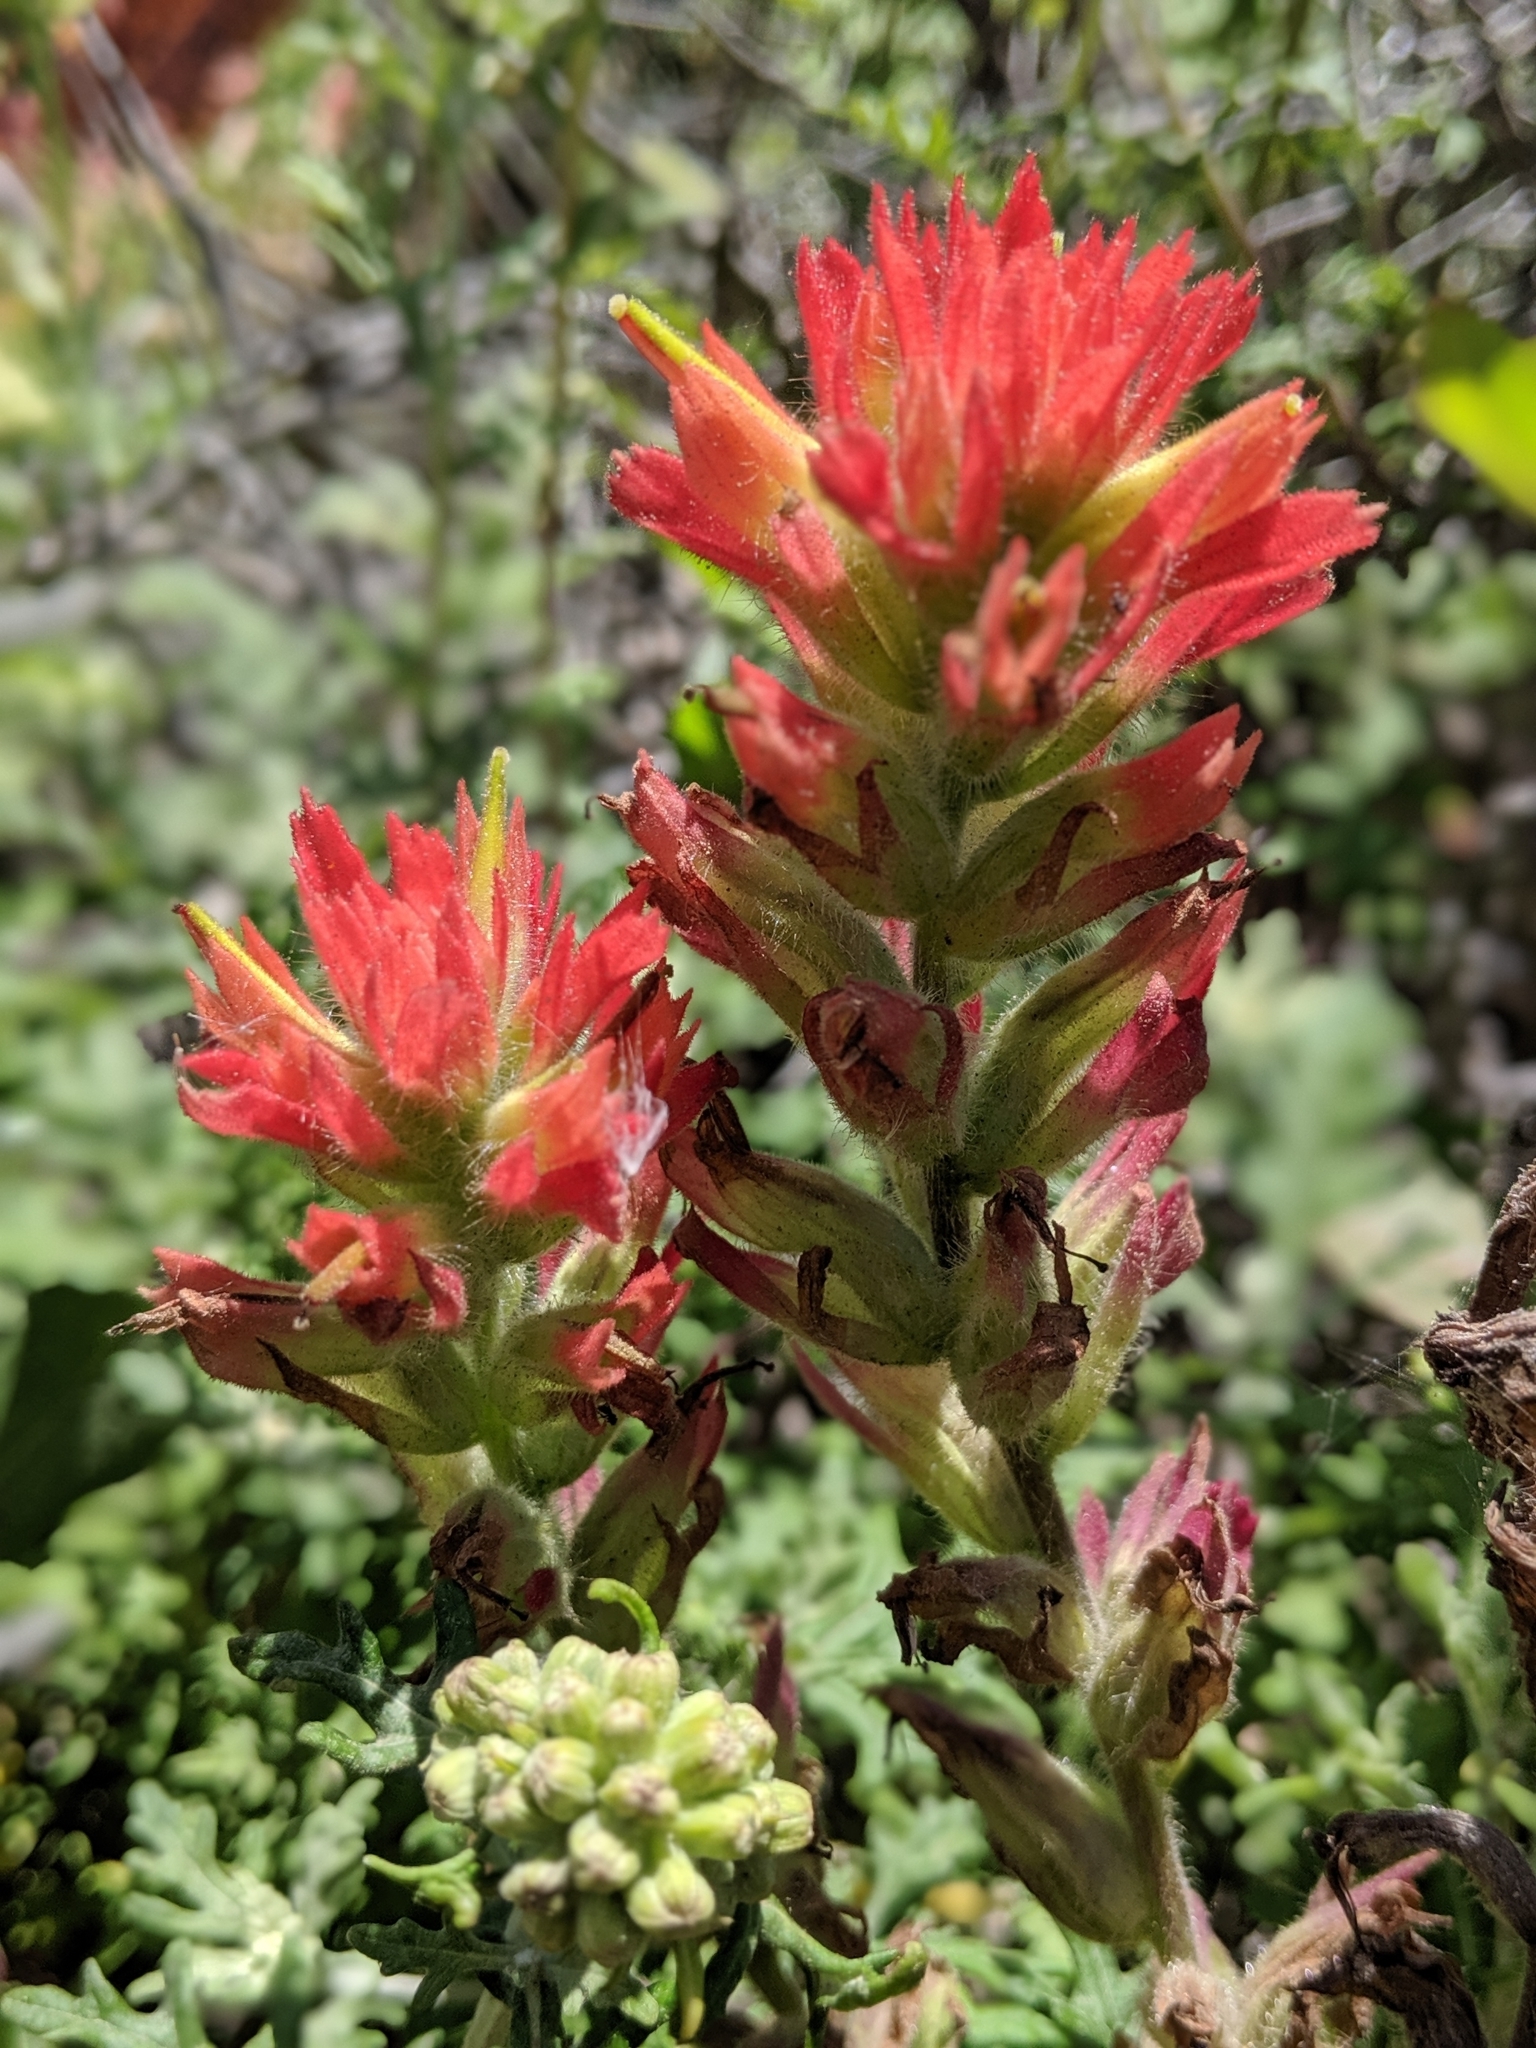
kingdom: Plantae
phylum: Tracheophyta
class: Magnoliopsida
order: Lamiales
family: Orobanchaceae
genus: Castilleja
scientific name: Castilleja affinis
